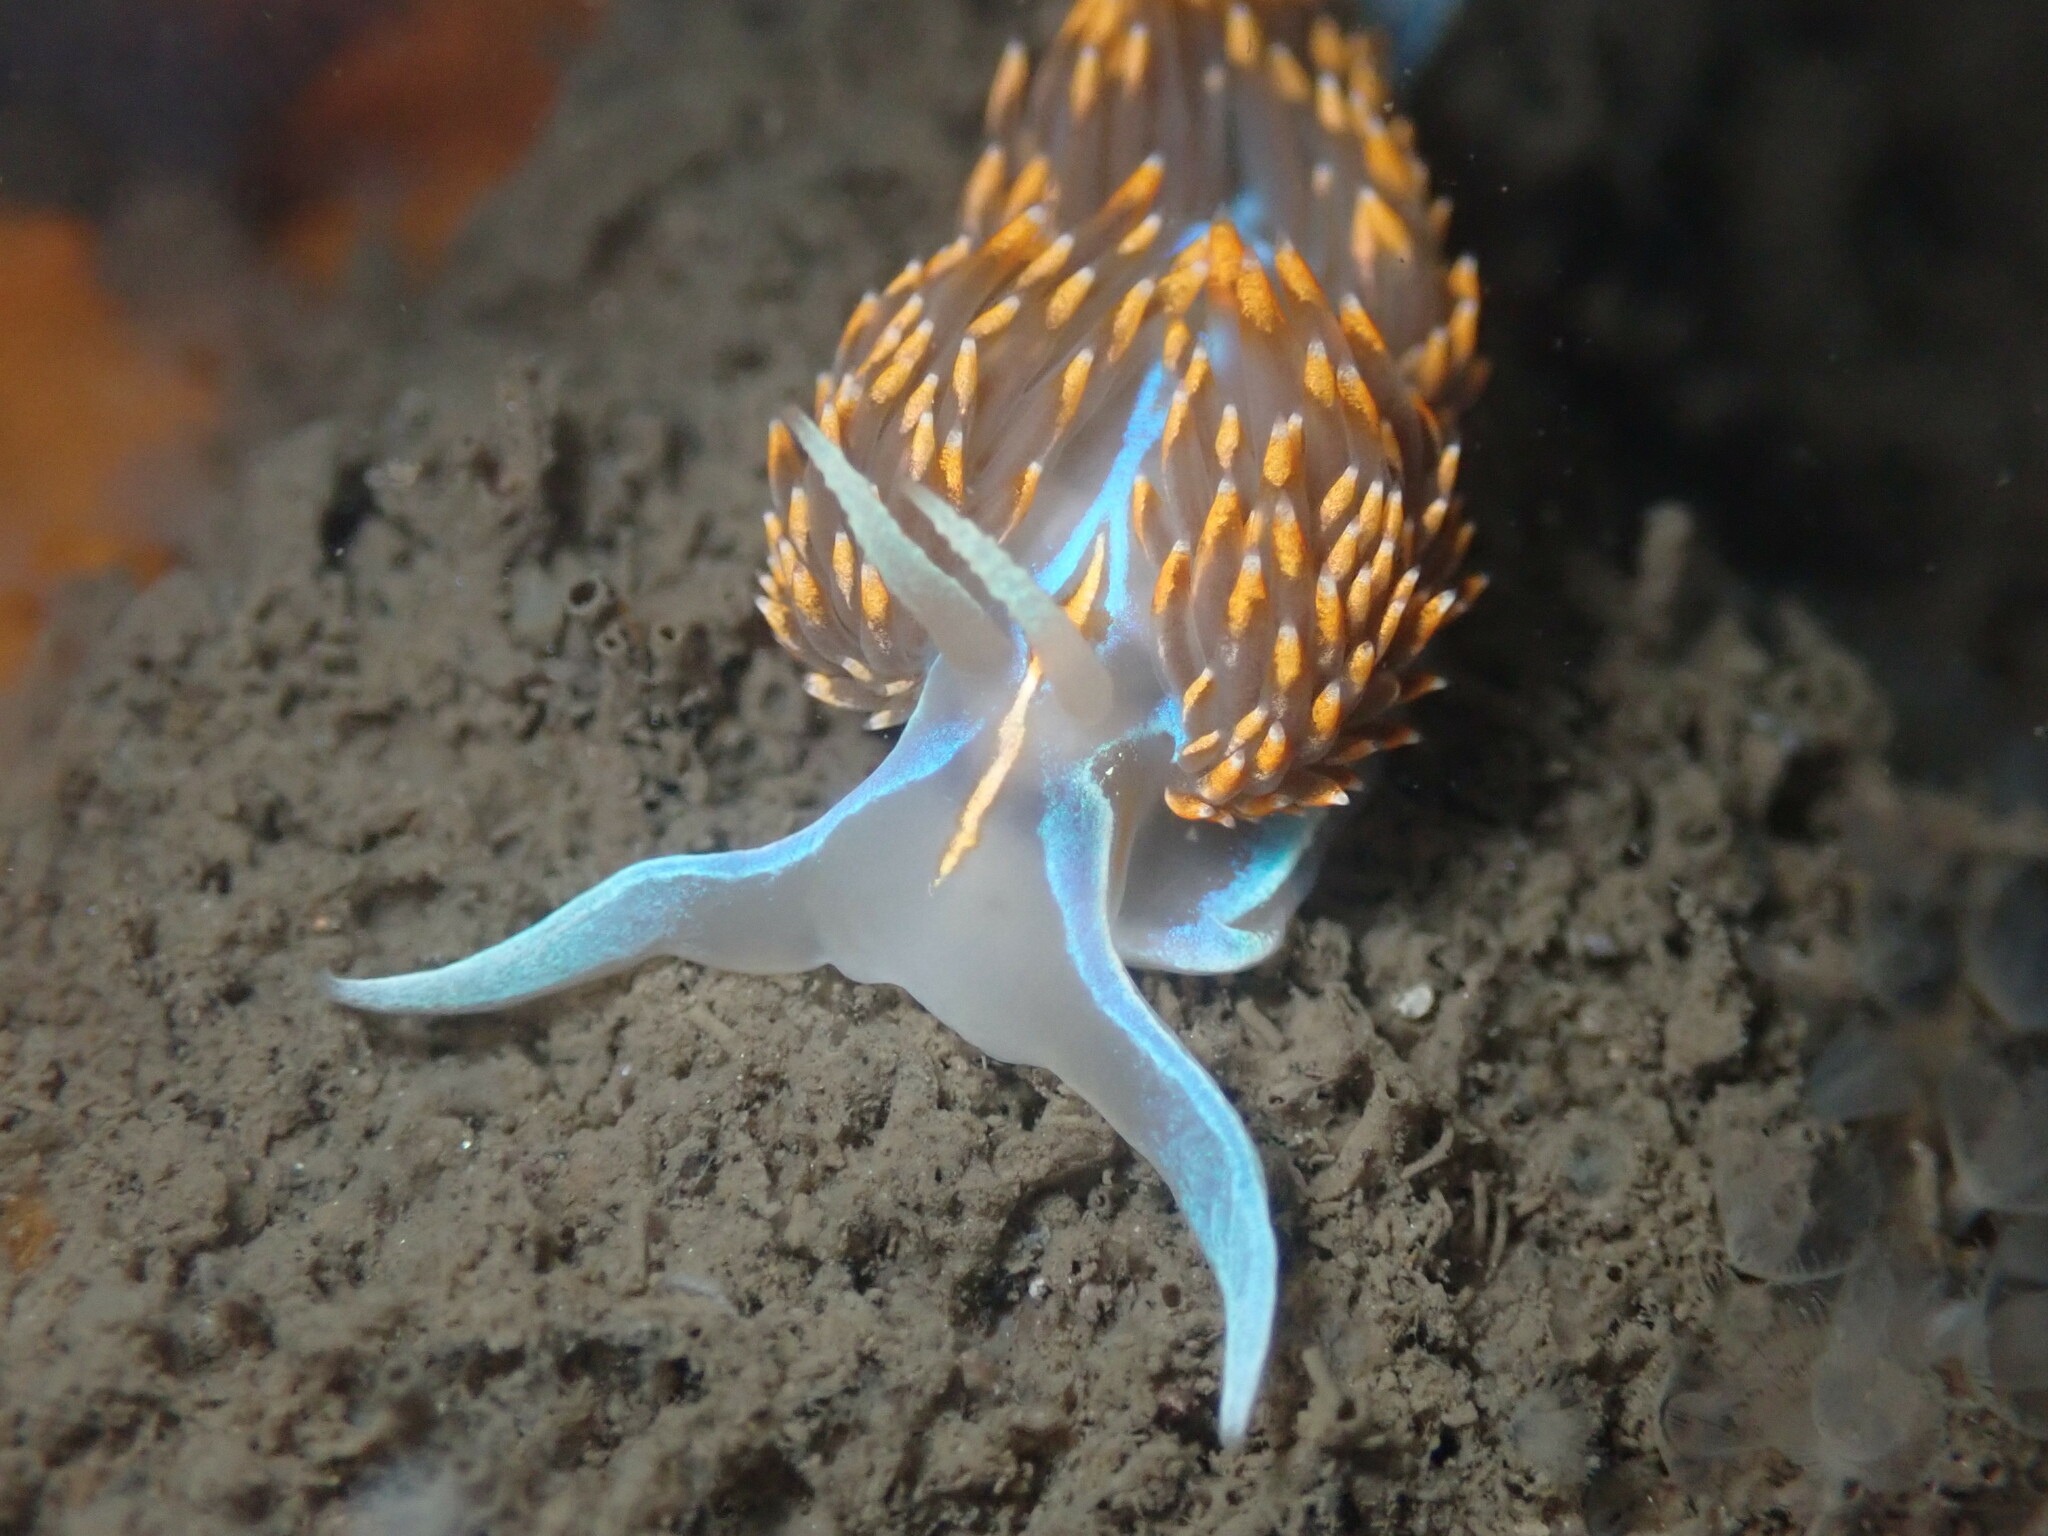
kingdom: Animalia
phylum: Mollusca
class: Gastropoda
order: Nudibranchia
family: Myrrhinidae
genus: Hermissenda
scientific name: Hermissenda opalescens
